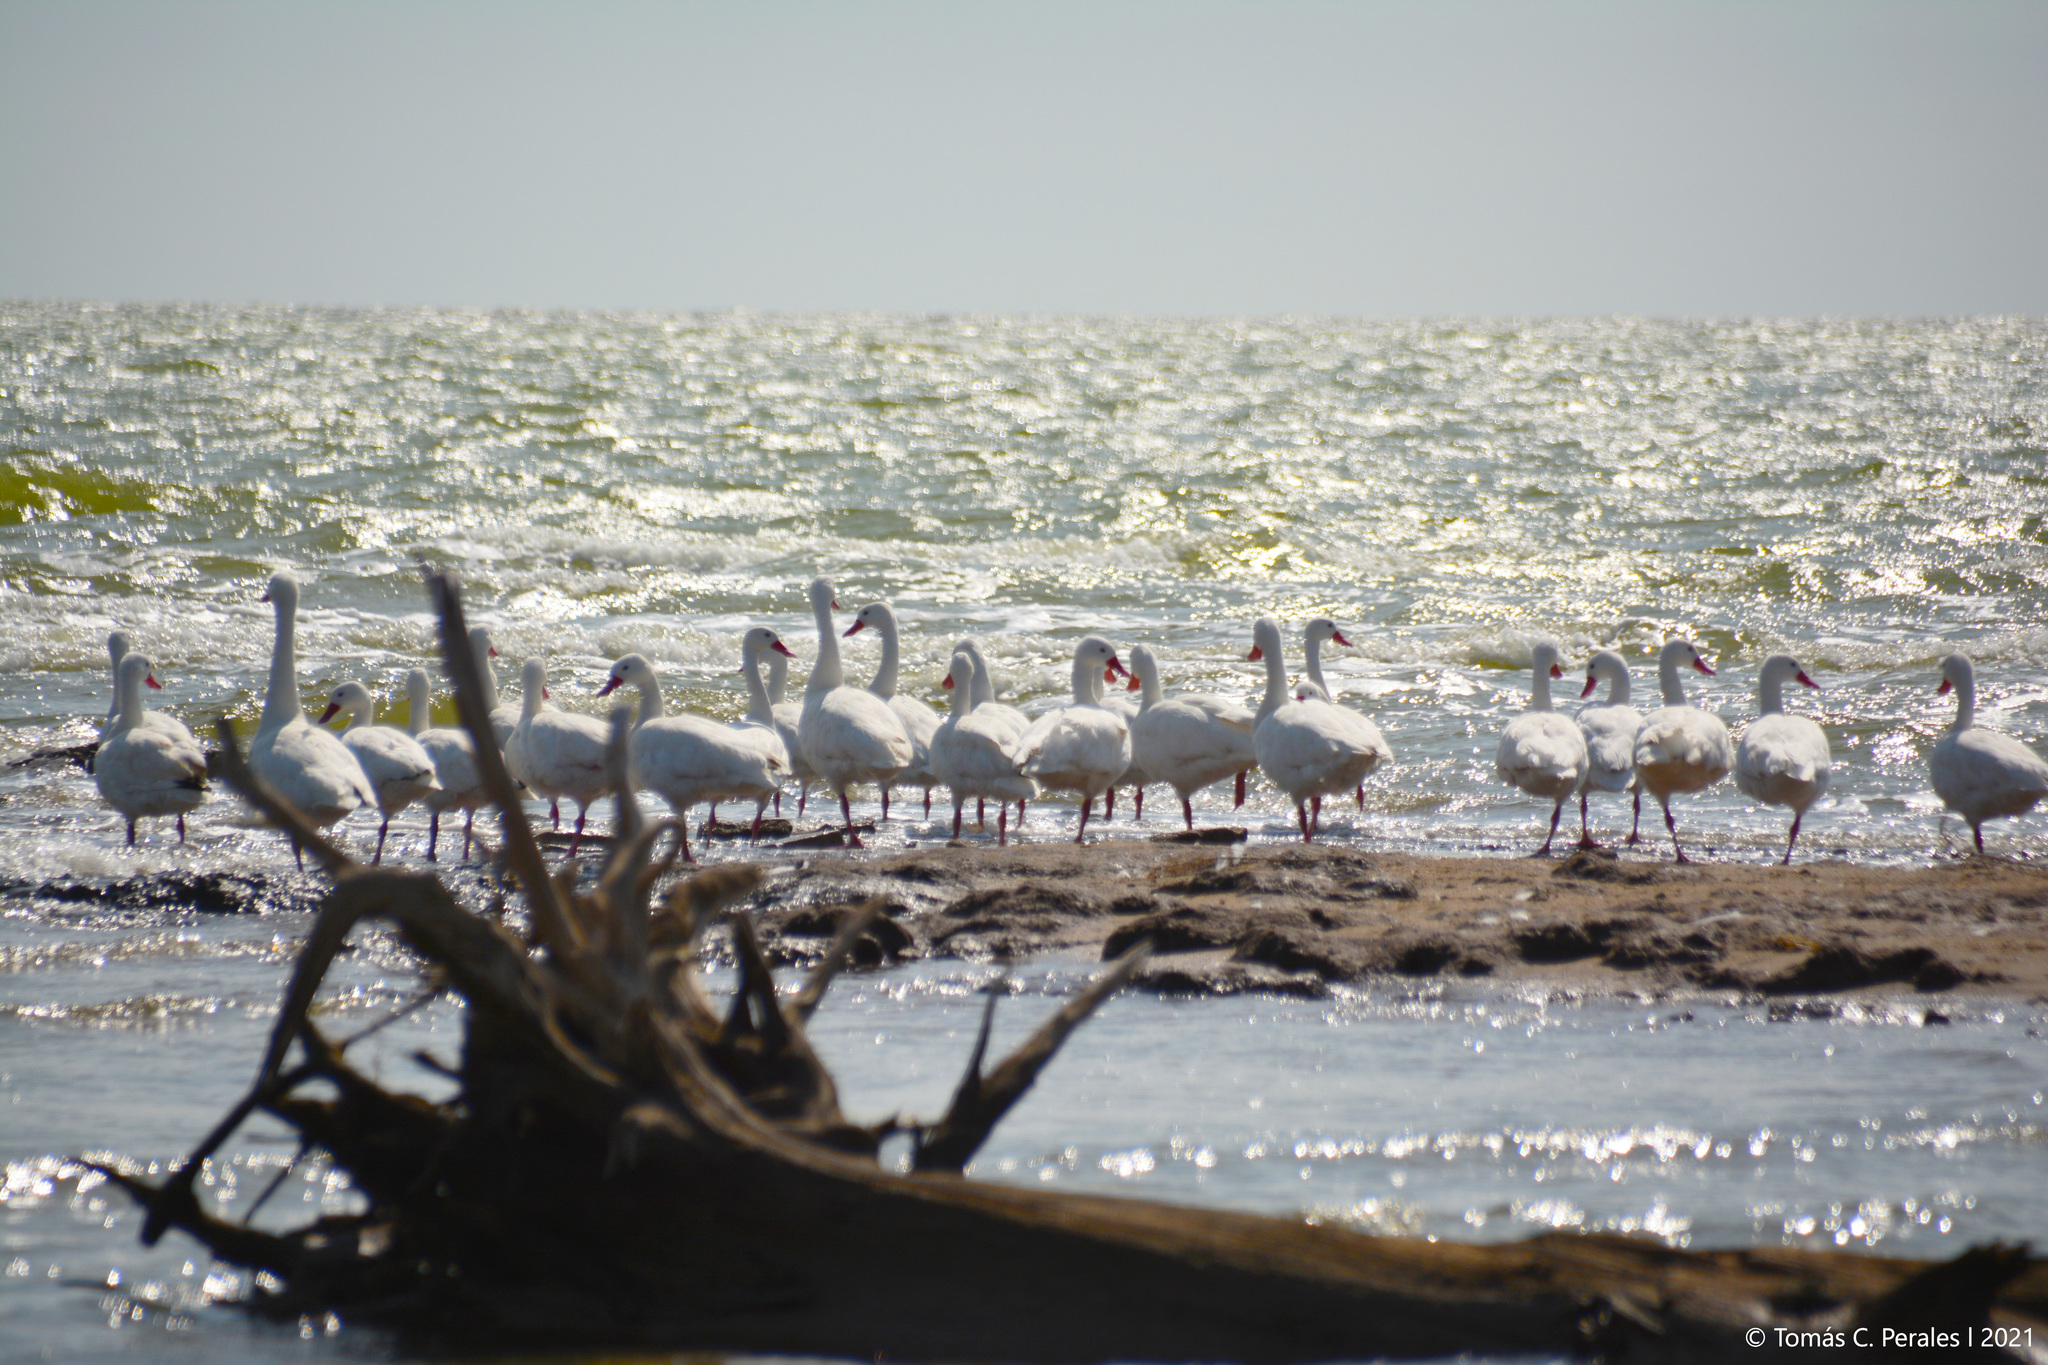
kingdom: Animalia
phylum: Chordata
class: Aves
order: Anseriformes
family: Anatidae
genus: Coscoroba
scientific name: Coscoroba coscoroba
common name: Coscoroba swan
